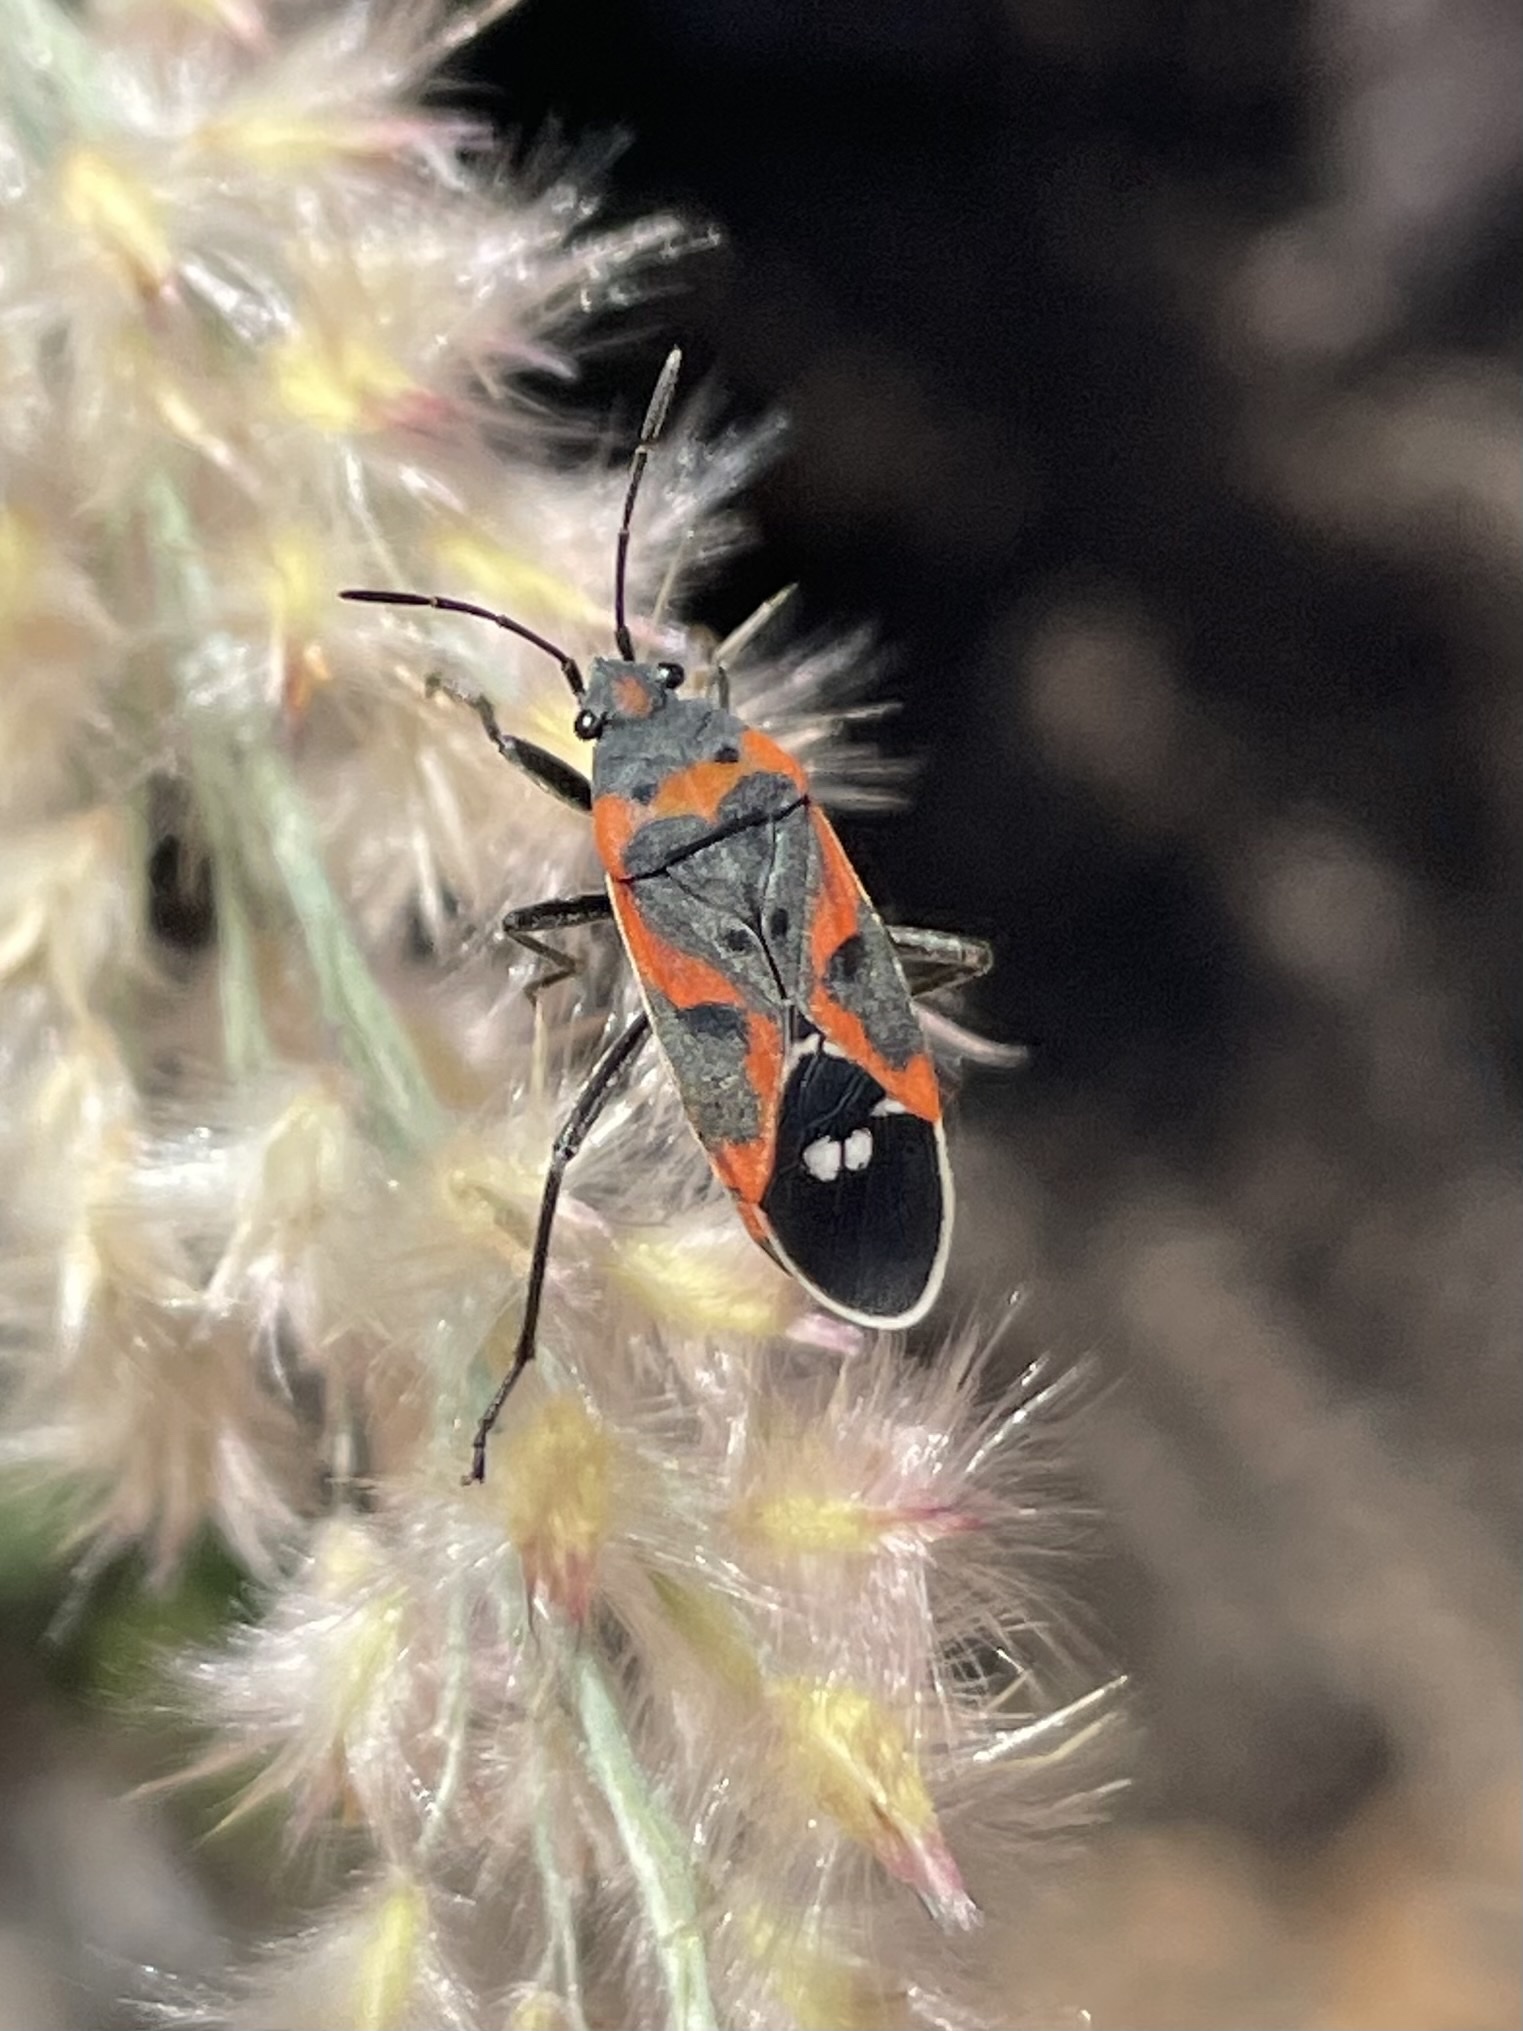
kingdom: Animalia
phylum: Arthropoda
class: Insecta
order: Hemiptera
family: Lygaeidae
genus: Lygaeus
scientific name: Lygaeus kalmii
